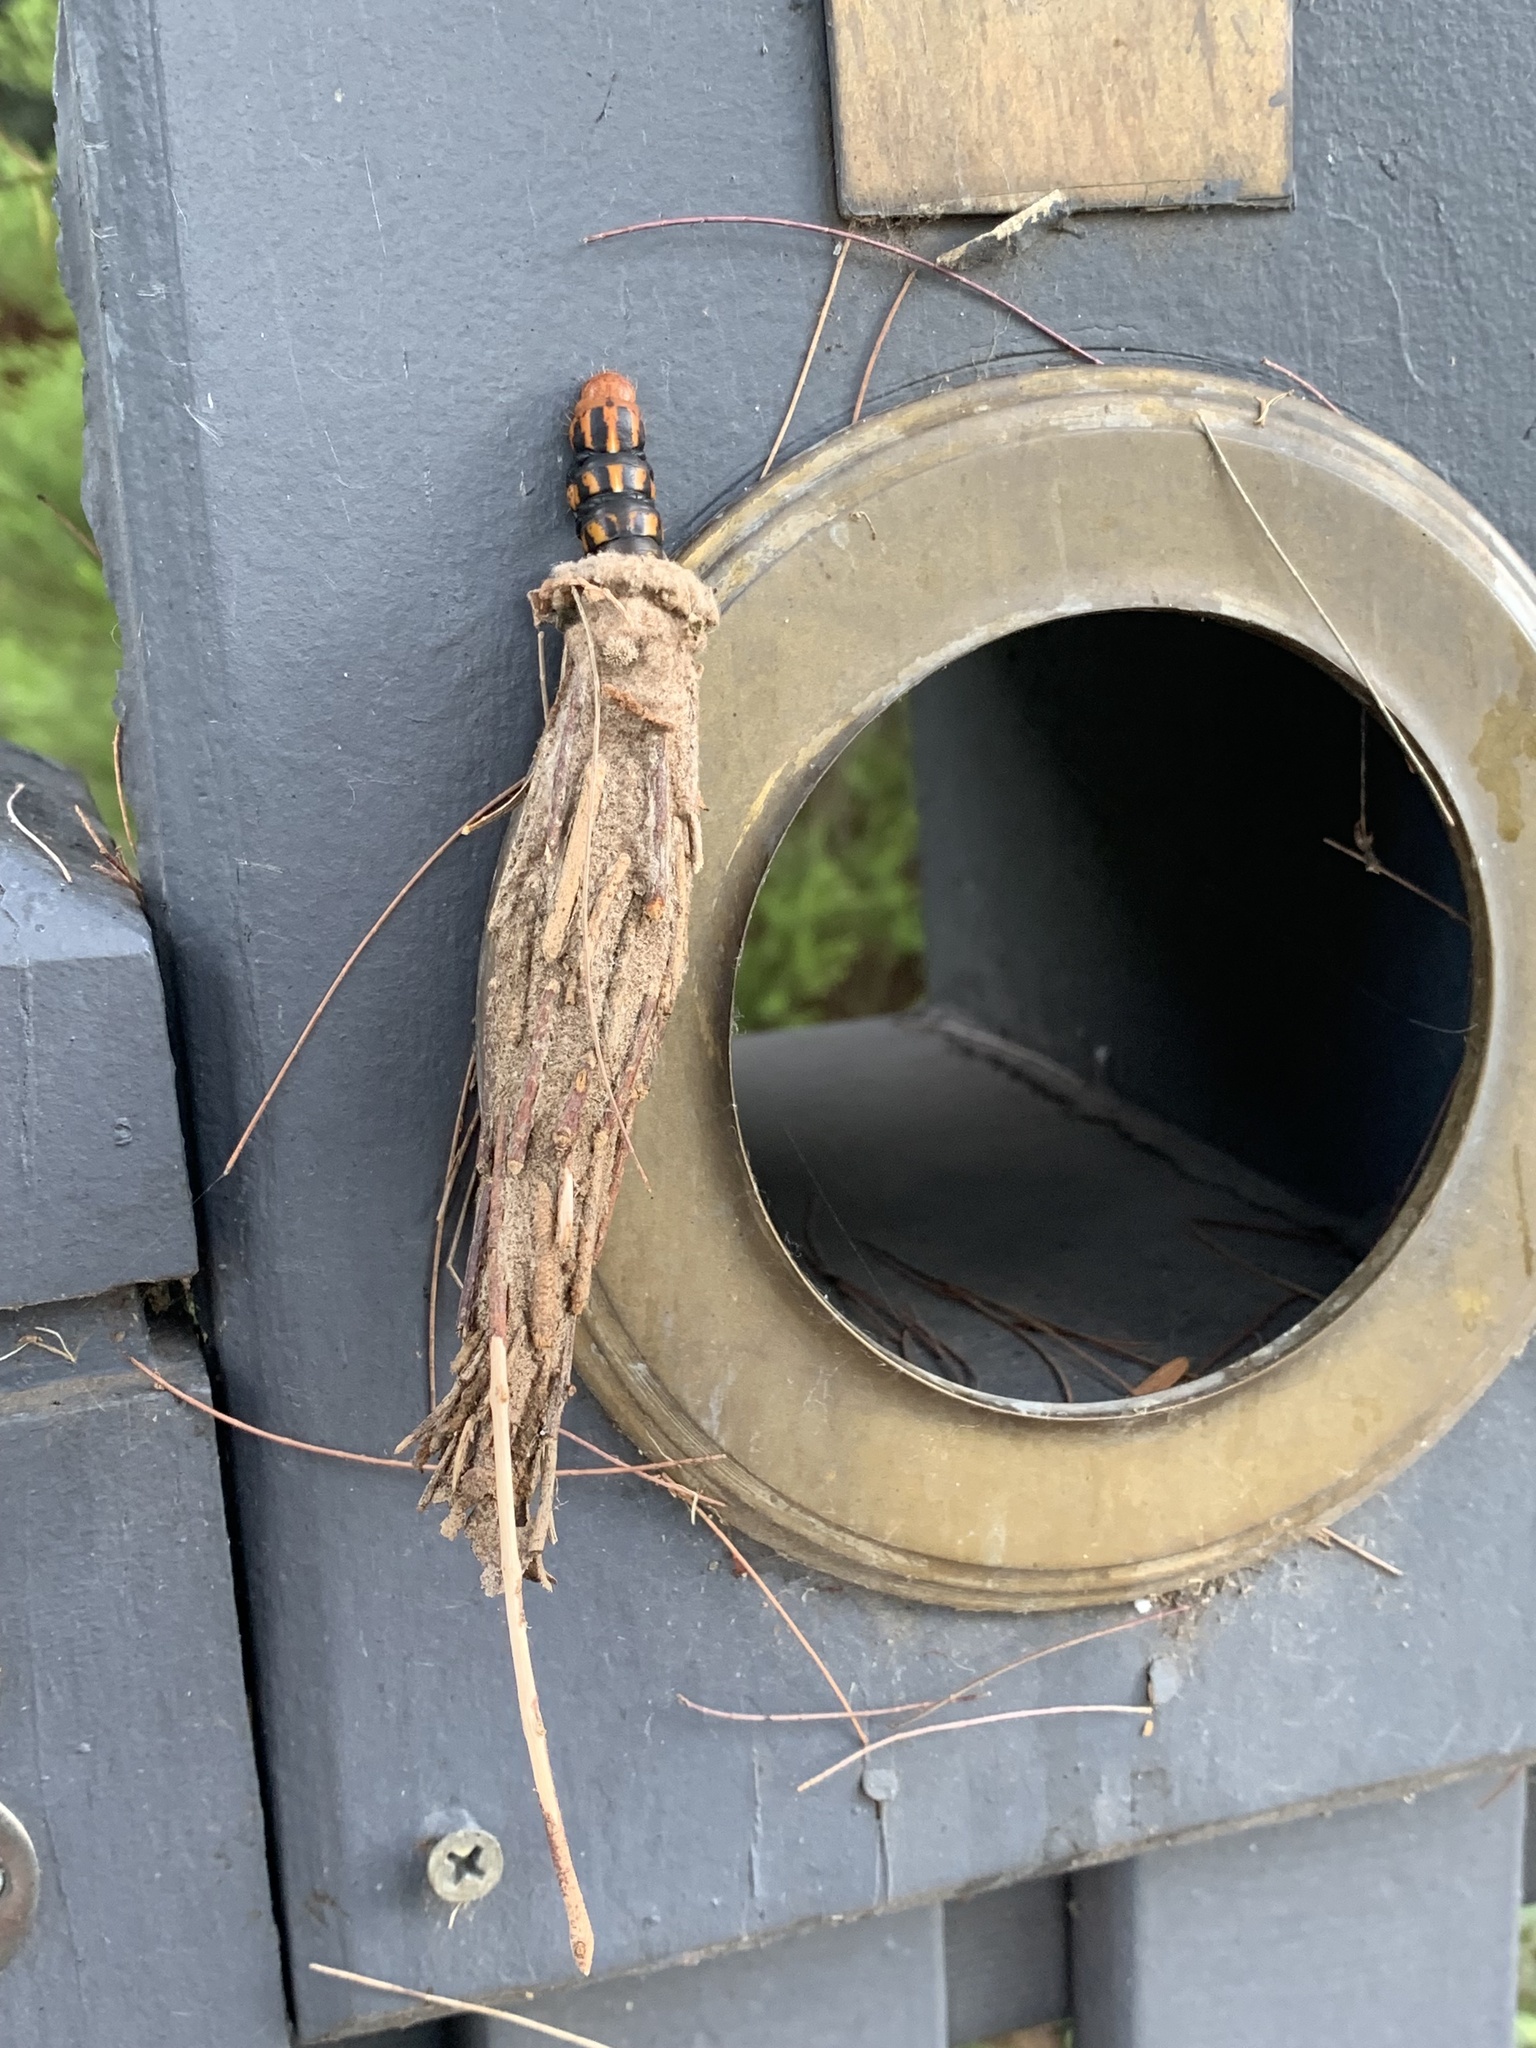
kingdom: Animalia
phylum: Arthropoda
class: Insecta
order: Lepidoptera
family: Psychidae
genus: Metura
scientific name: Metura elongatus
